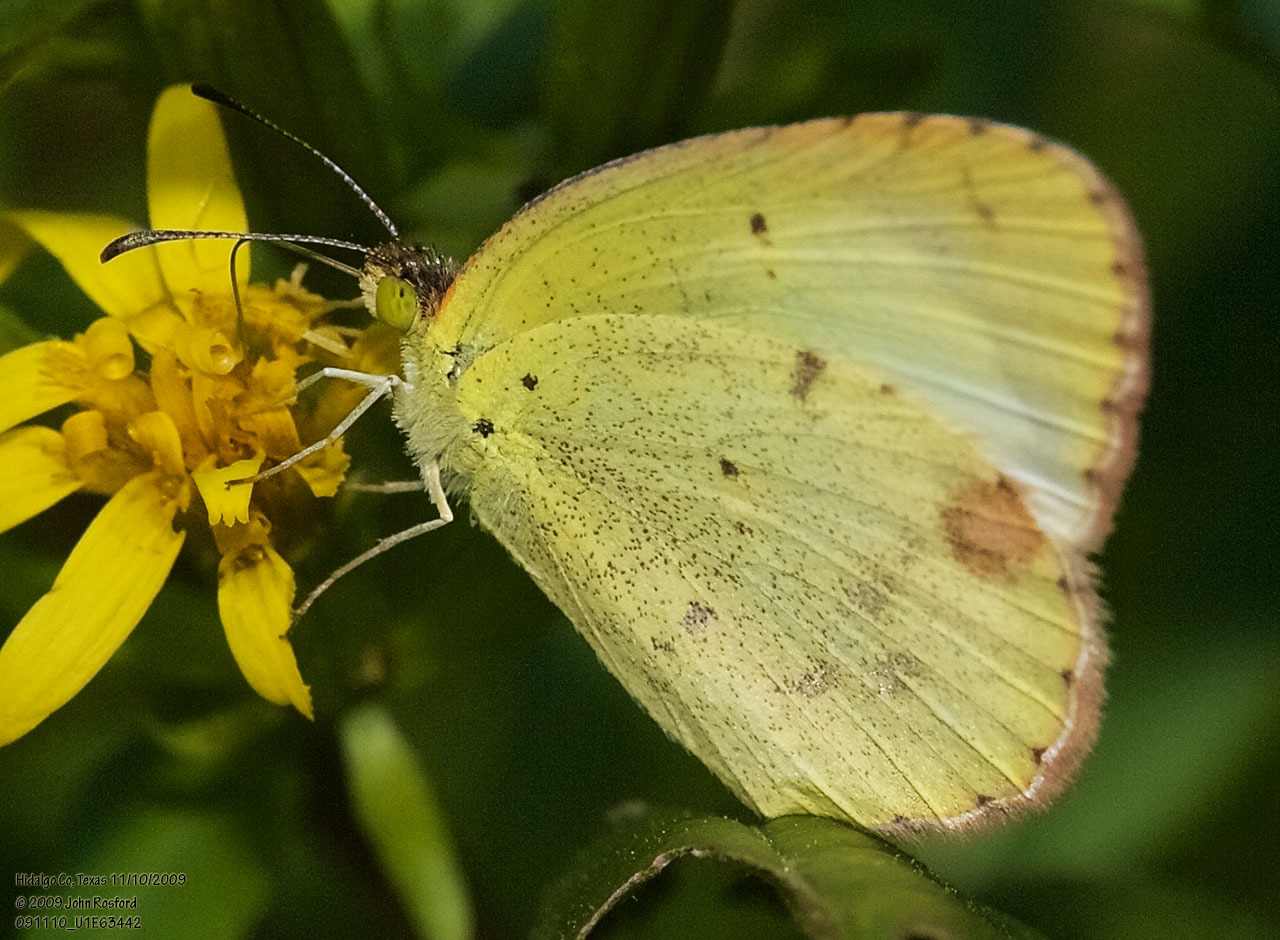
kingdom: Animalia
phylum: Arthropoda
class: Insecta
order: Lepidoptera
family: Pieridae
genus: Pyrisitia
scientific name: Pyrisitia lisa
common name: Little yellow
